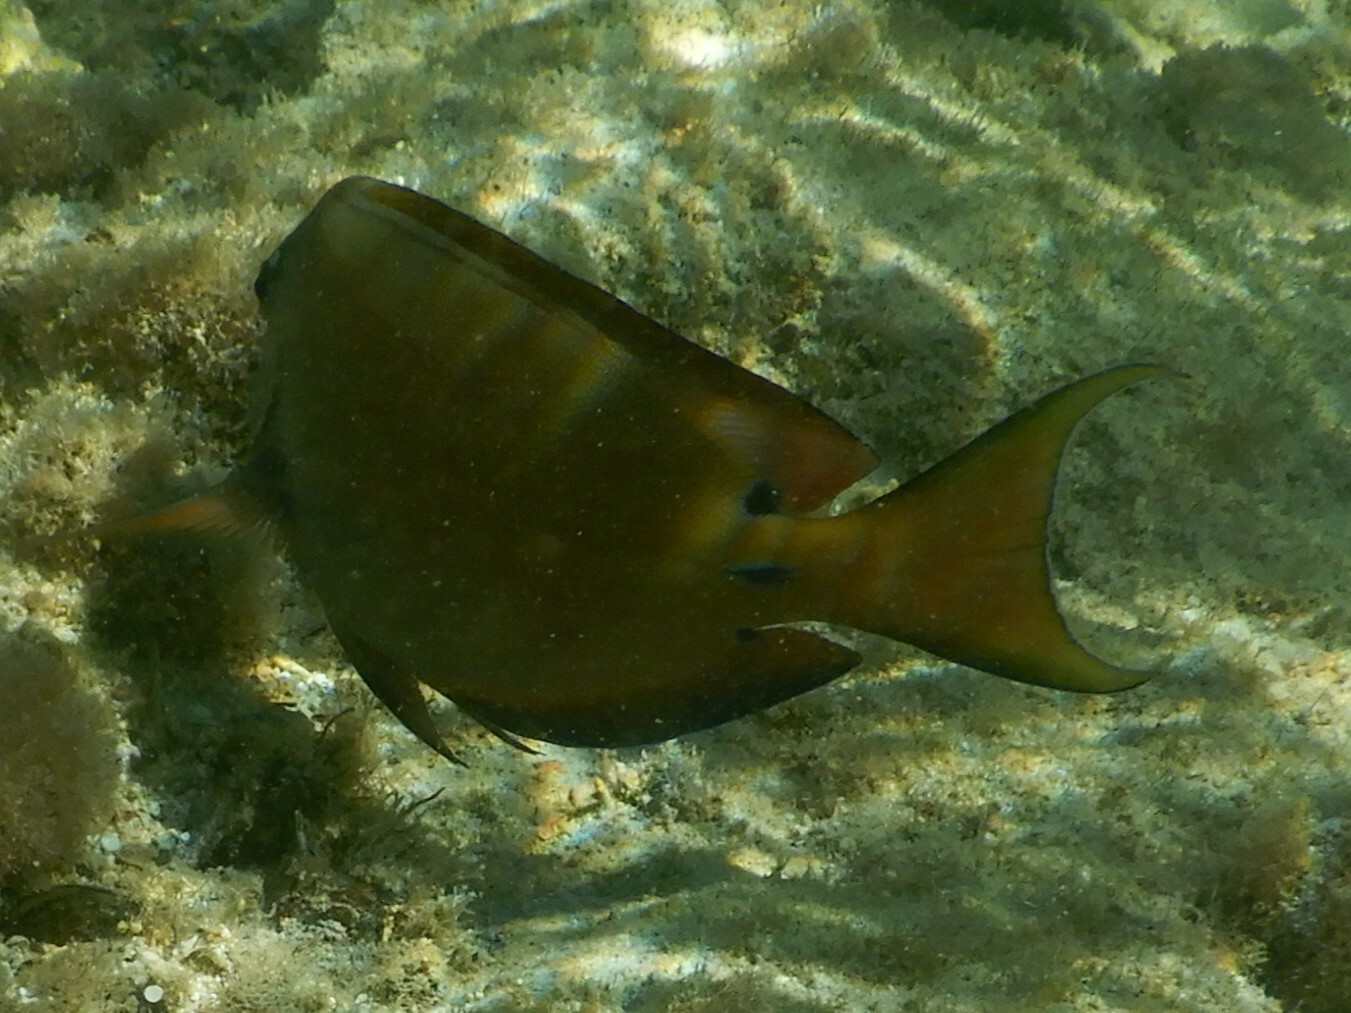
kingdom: Animalia
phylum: Chordata
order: Perciformes
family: Acanthuridae
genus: Acanthurus
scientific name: Acanthurus nigrofuscus
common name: Blackspot surgeonfish
